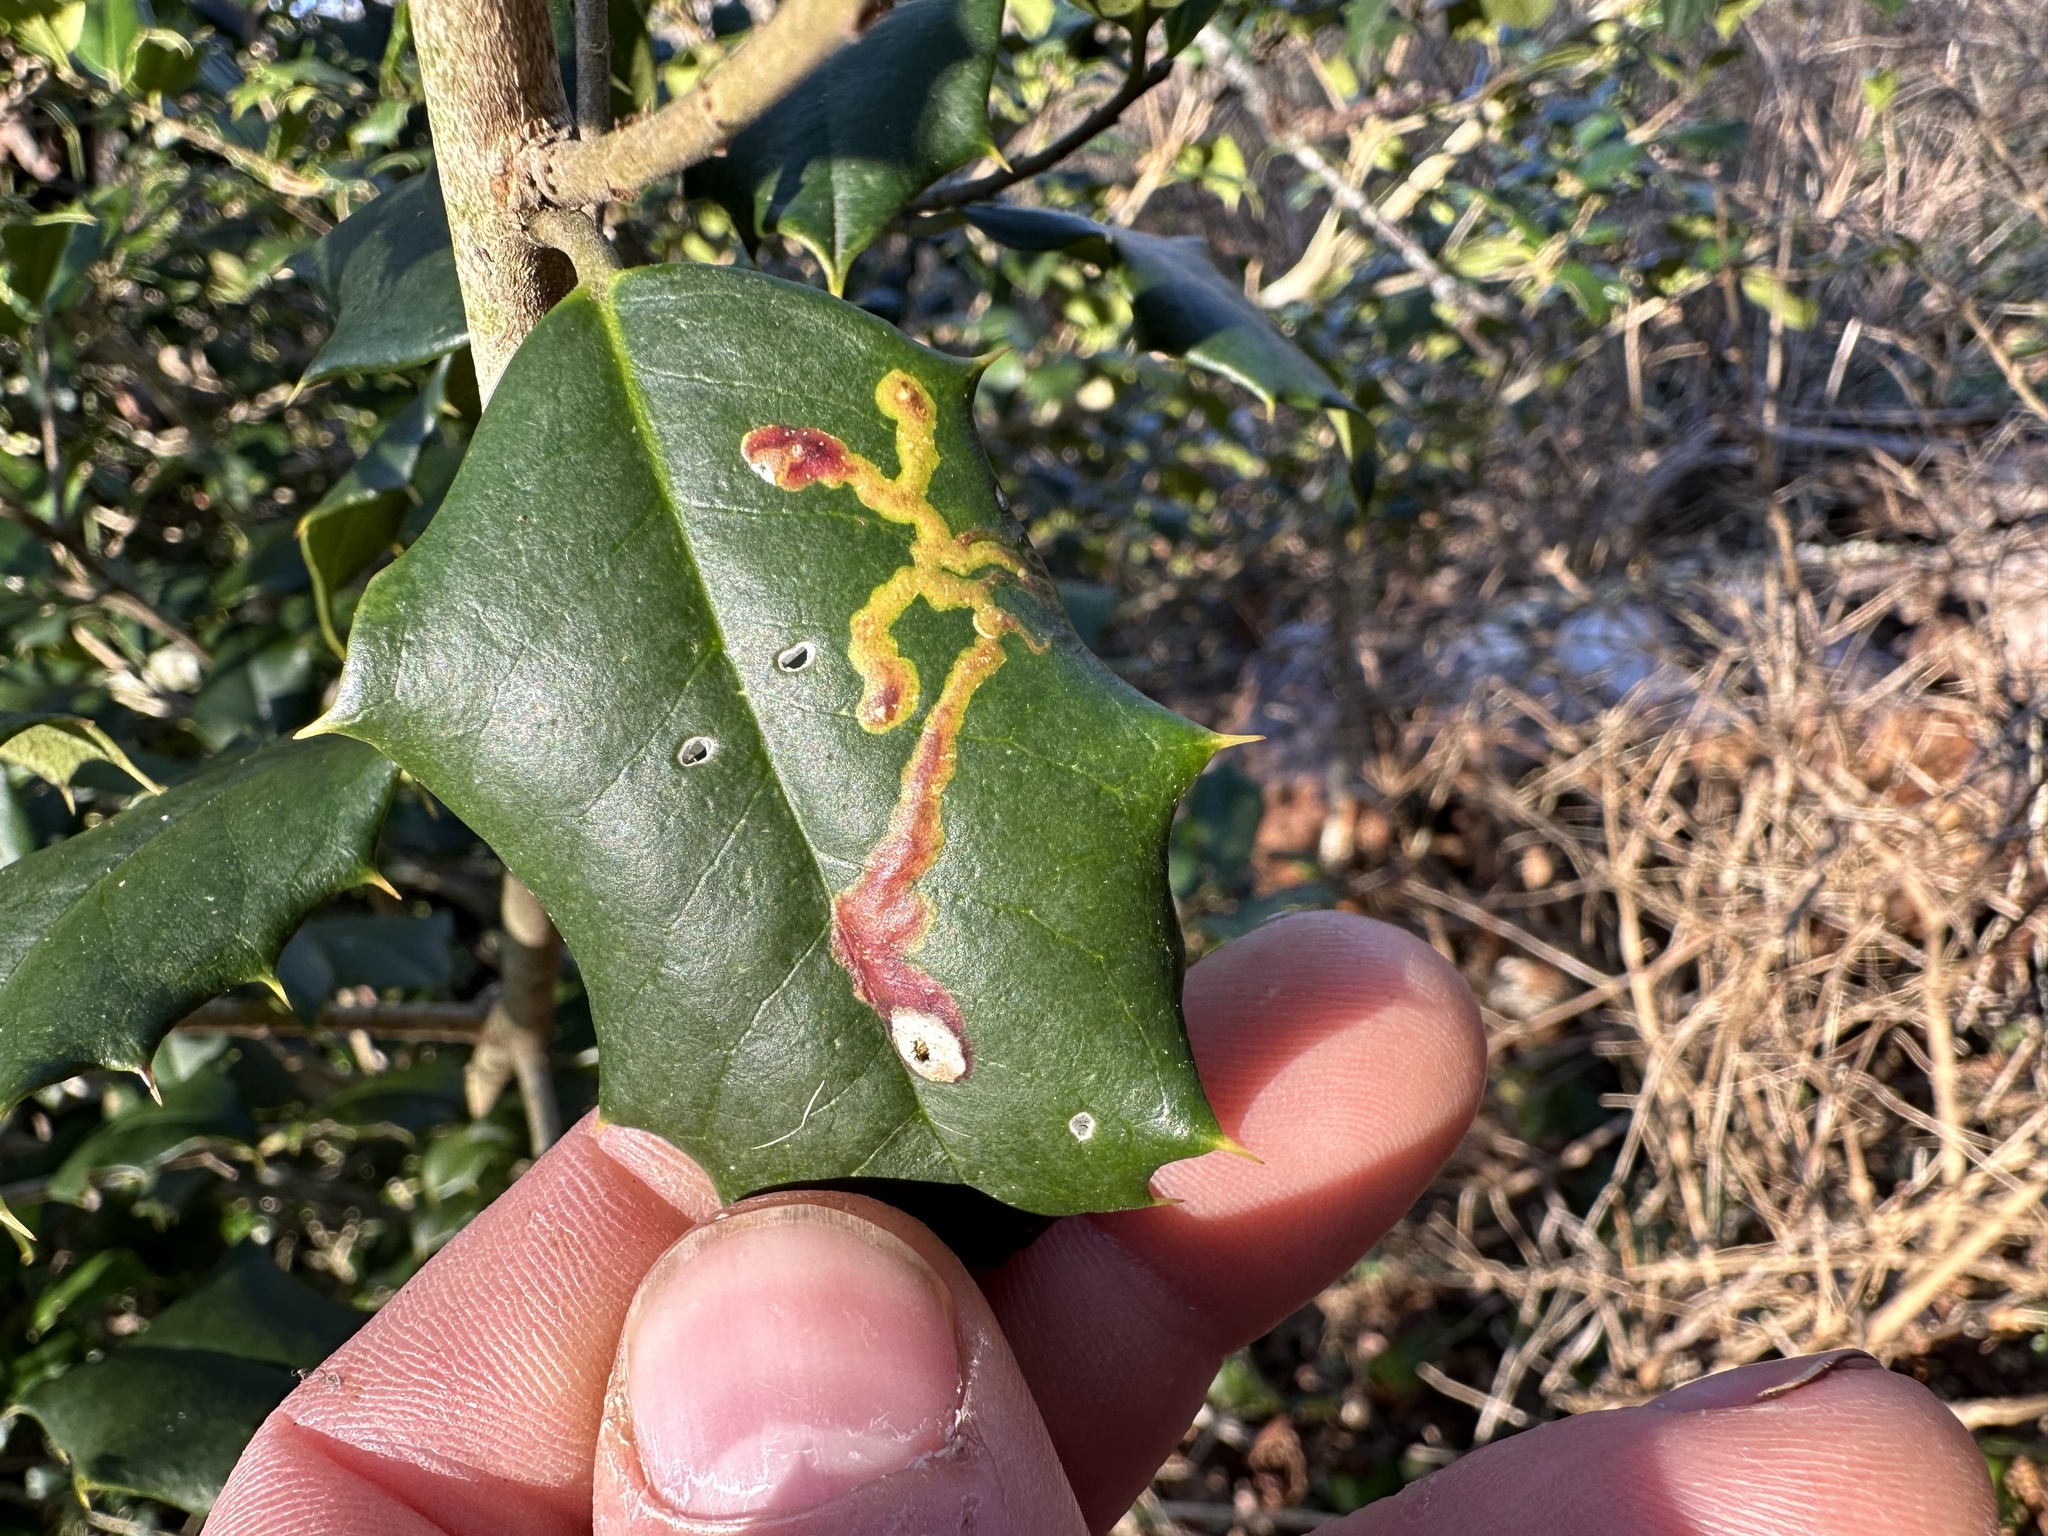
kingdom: Animalia
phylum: Arthropoda
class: Insecta
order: Diptera
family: Agromyzidae
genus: Phytomyza
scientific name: Phytomyza ilicicola
